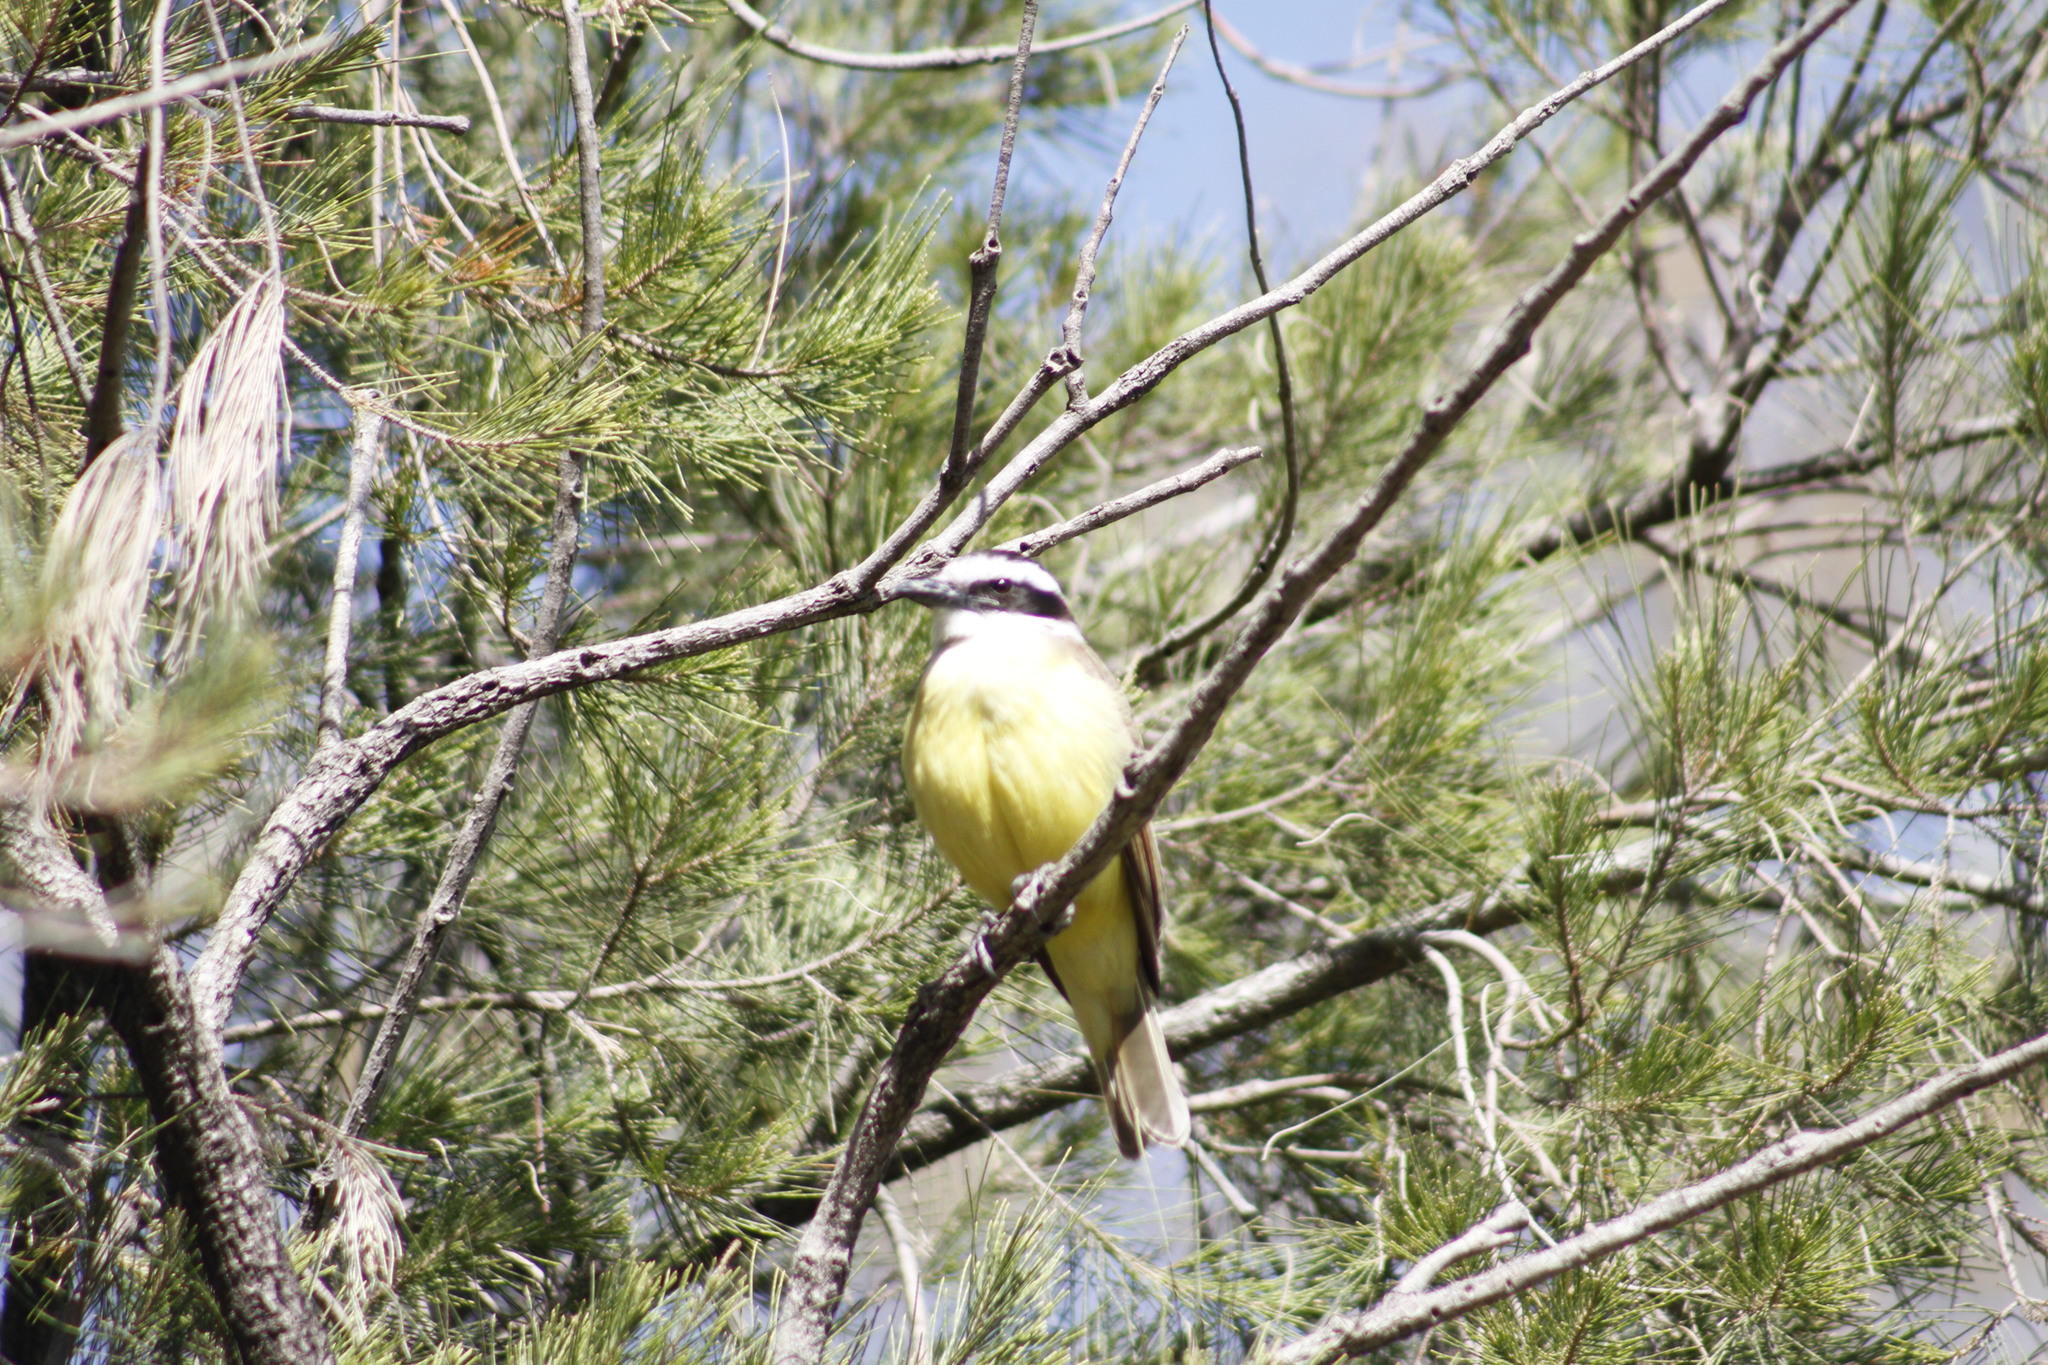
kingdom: Animalia
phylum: Chordata
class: Aves
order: Passeriformes
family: Tyrannidae
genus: Pitangus
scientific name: Pitangus sulphuratus
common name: Great kiskadee
